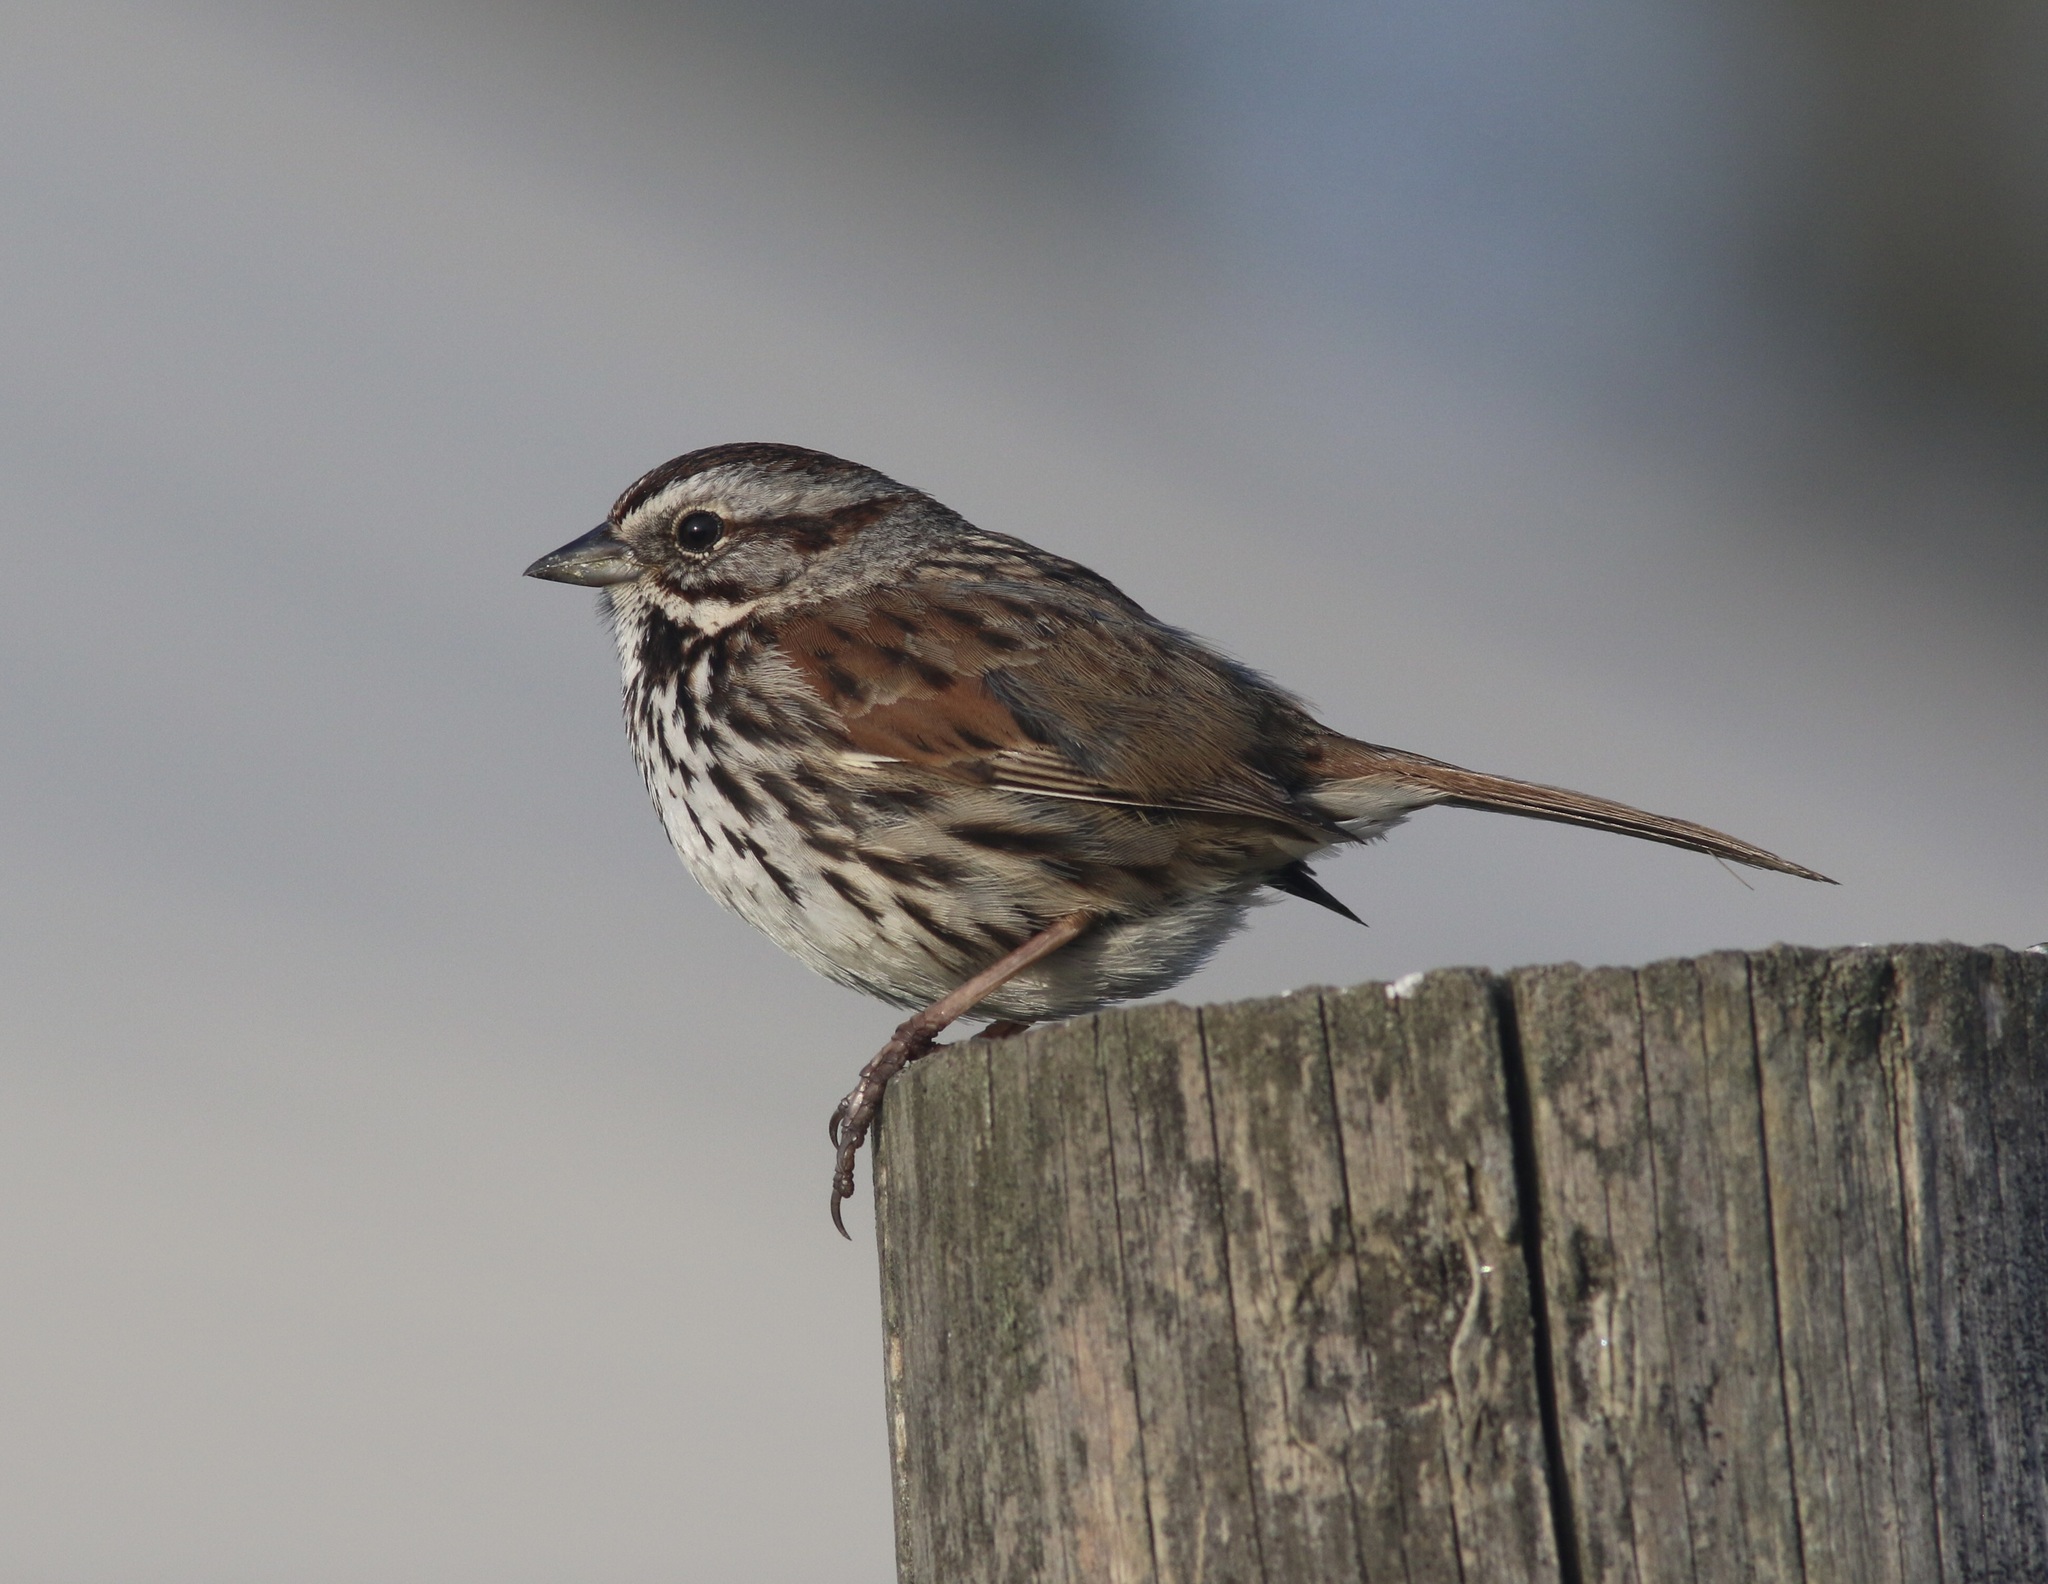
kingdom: Animalia
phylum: Chordata
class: Aves
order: Passeriformes
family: Passerellidae
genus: Melospiza
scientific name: Melospiza melodia
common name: Song sparrow
